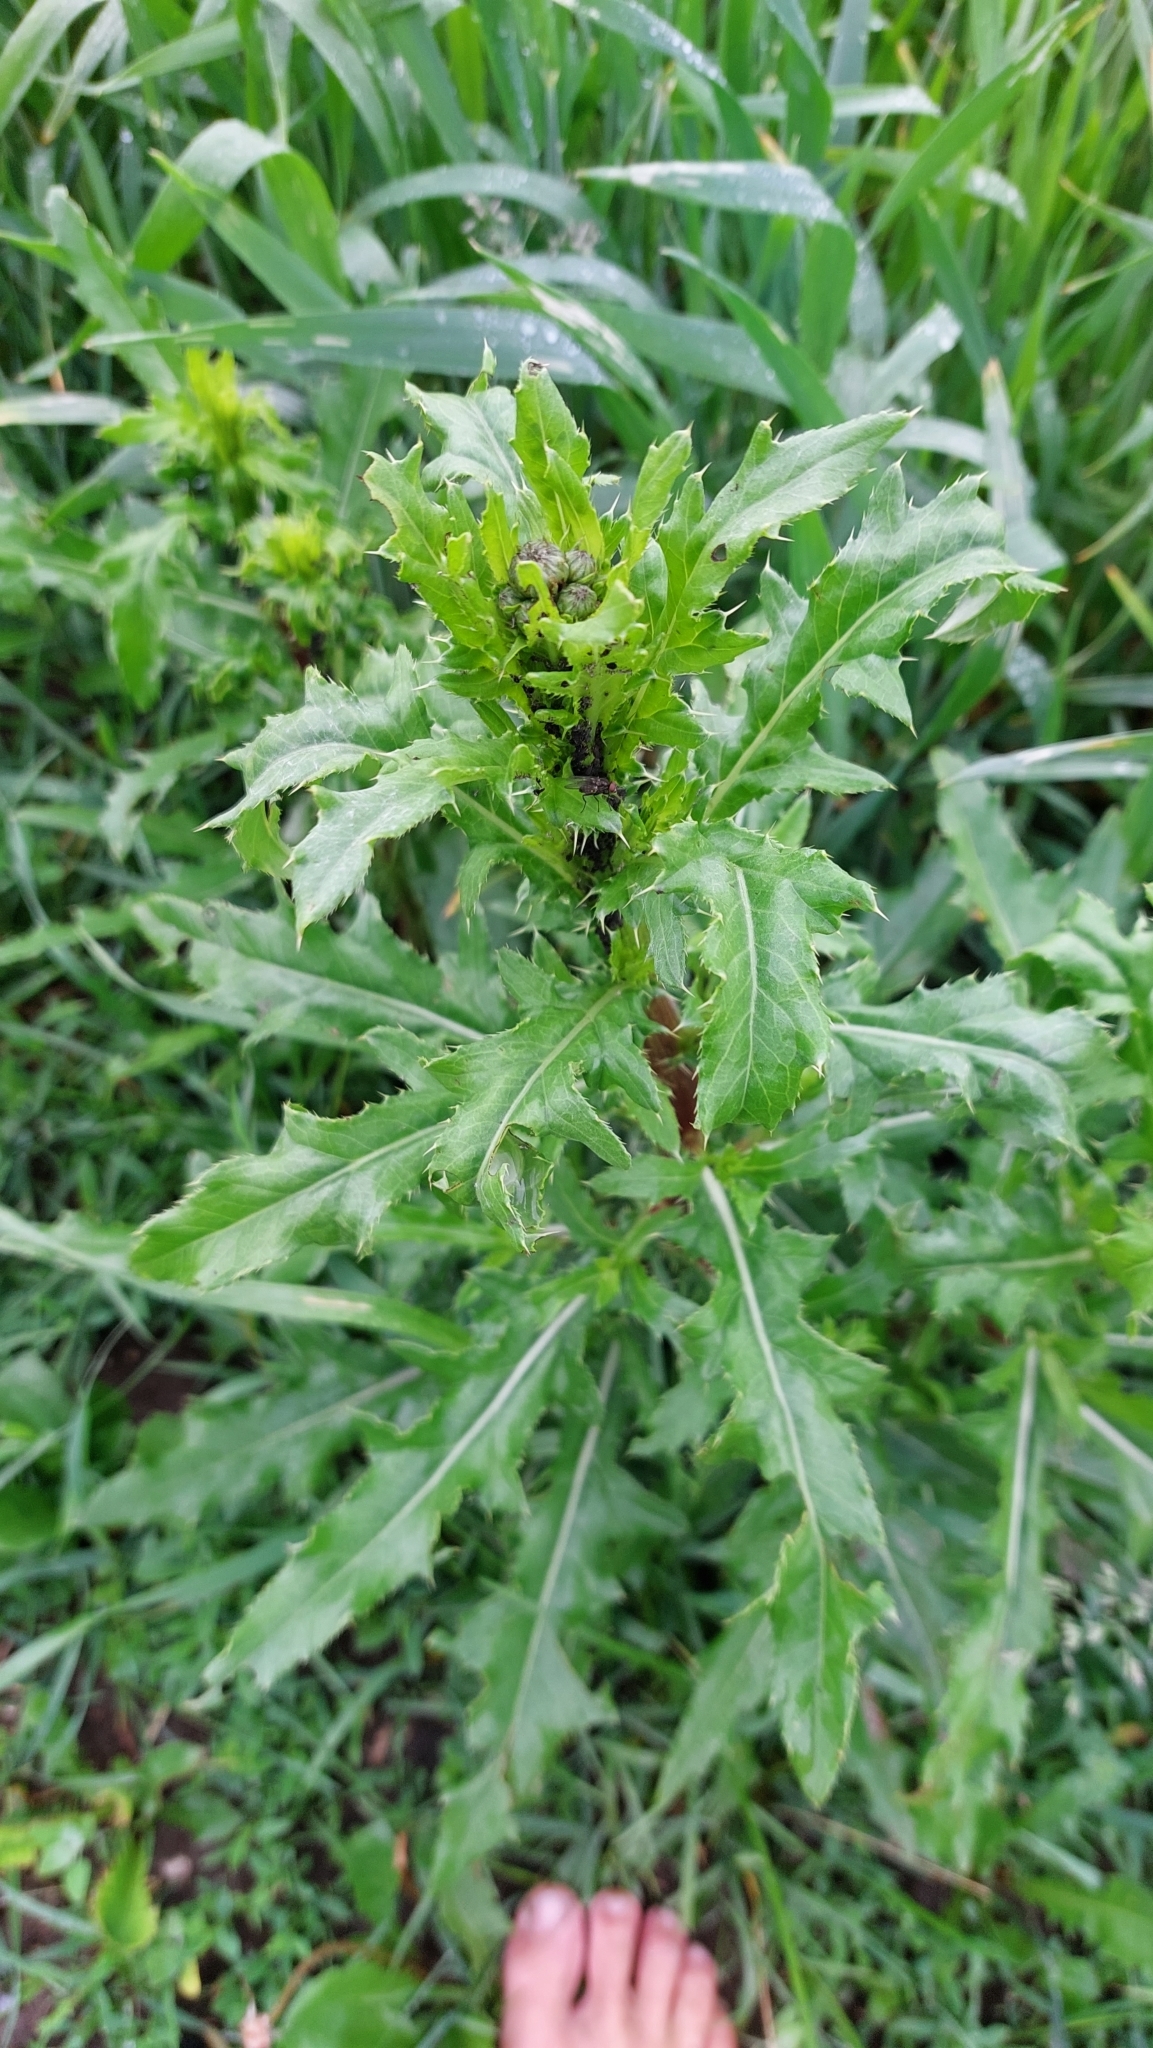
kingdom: Plantae
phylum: Tracheophyta
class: Magnoliopsida
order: Asterales
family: Asteraceae
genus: Cirsium
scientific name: Cirsium arvense
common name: Creeping thistle
